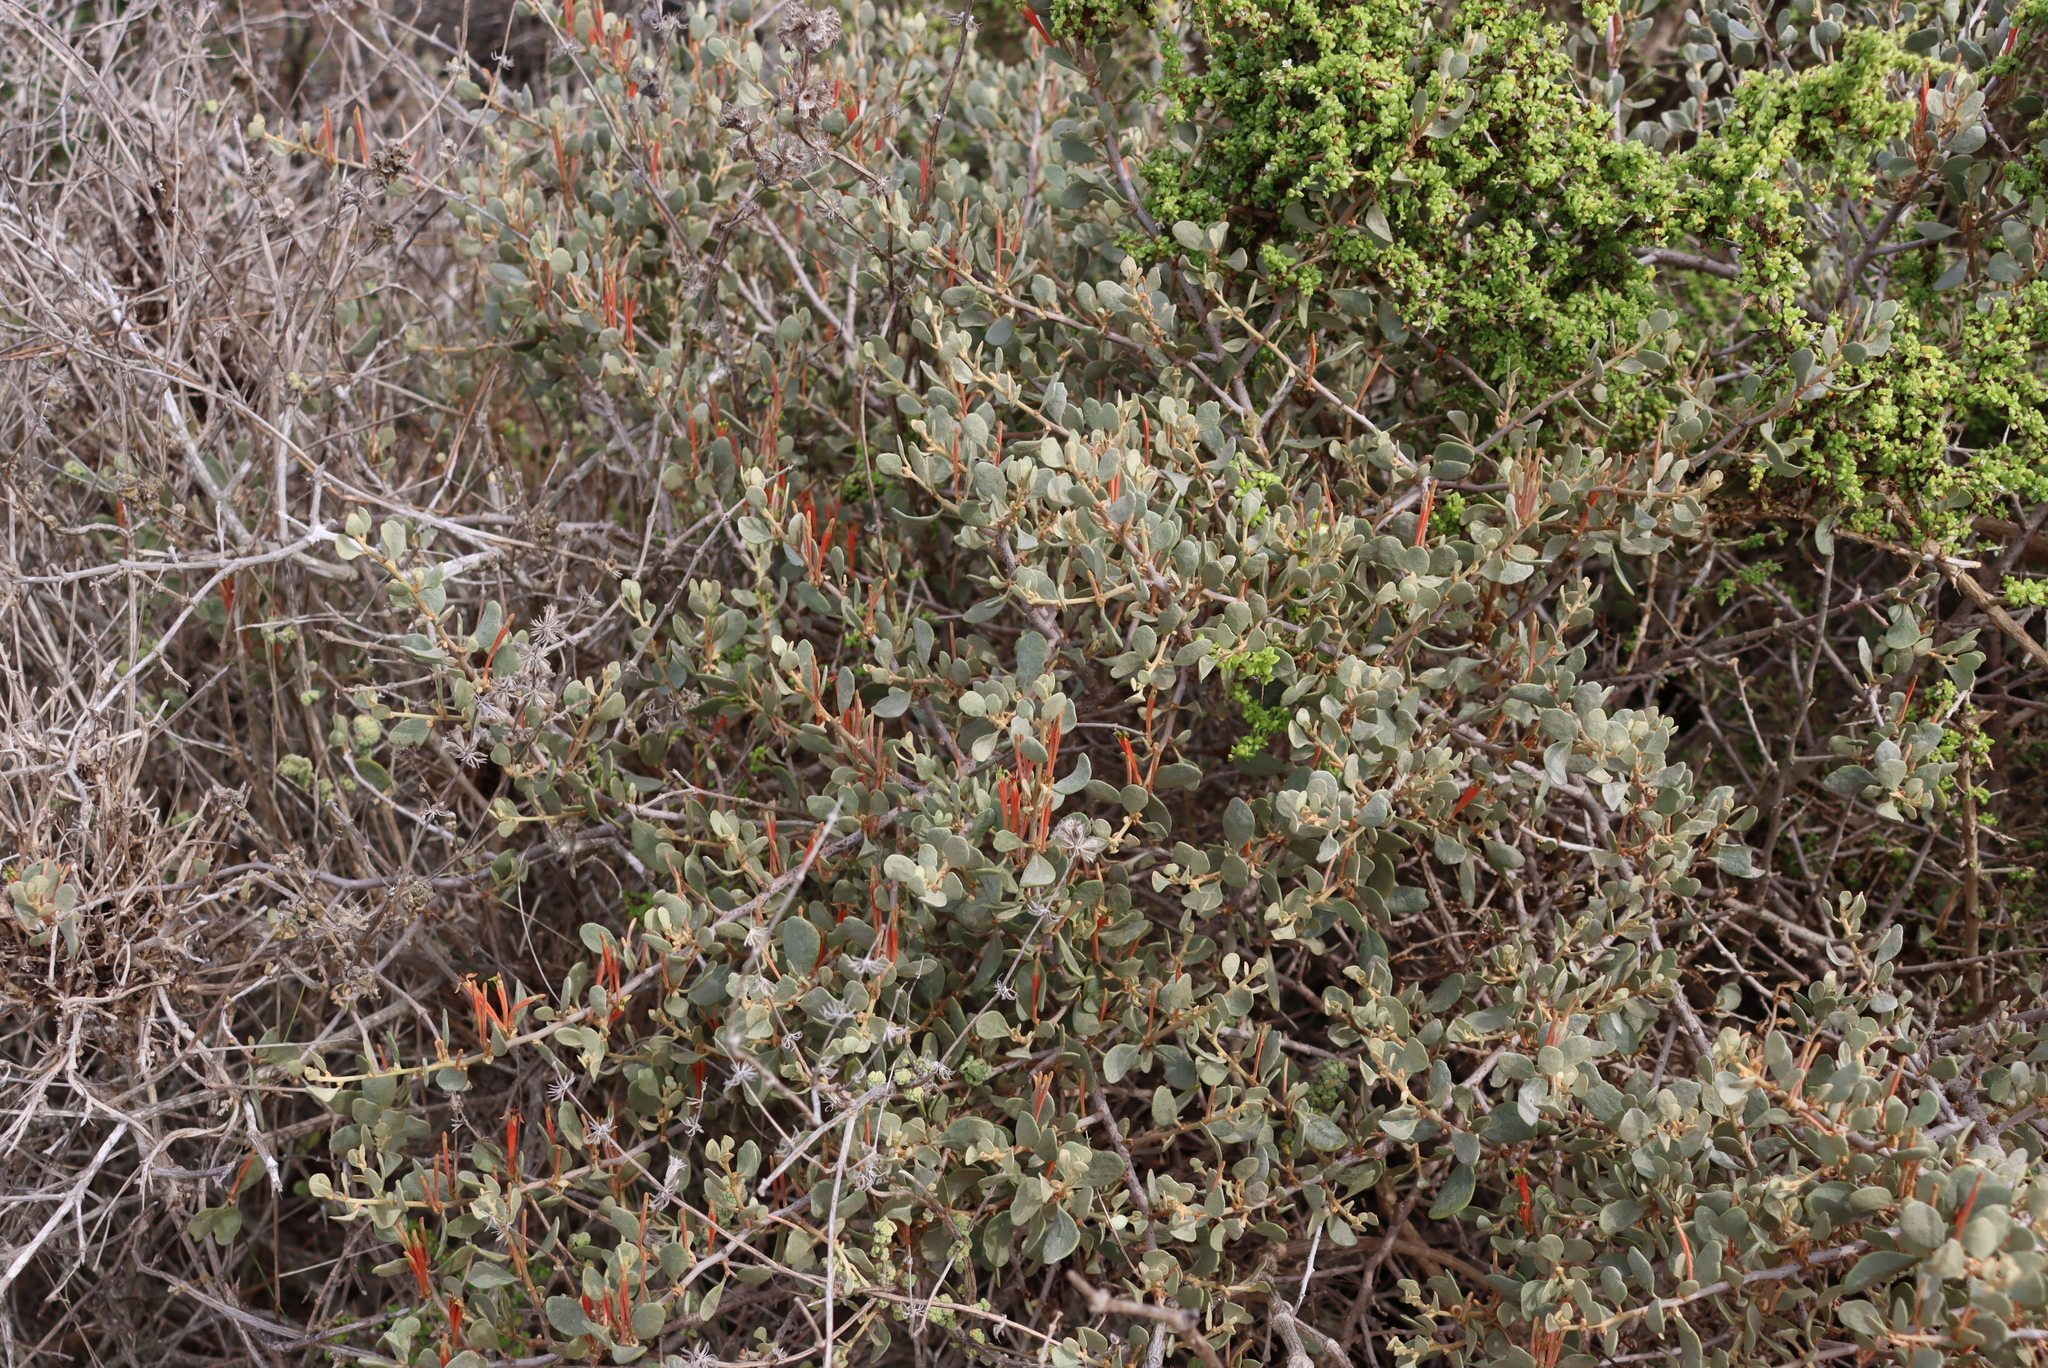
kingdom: Plantae
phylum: Tracheophyta
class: Magnoliopsida
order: Santalales
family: Loranthaceae
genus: Septulina
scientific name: Septulina glauca
